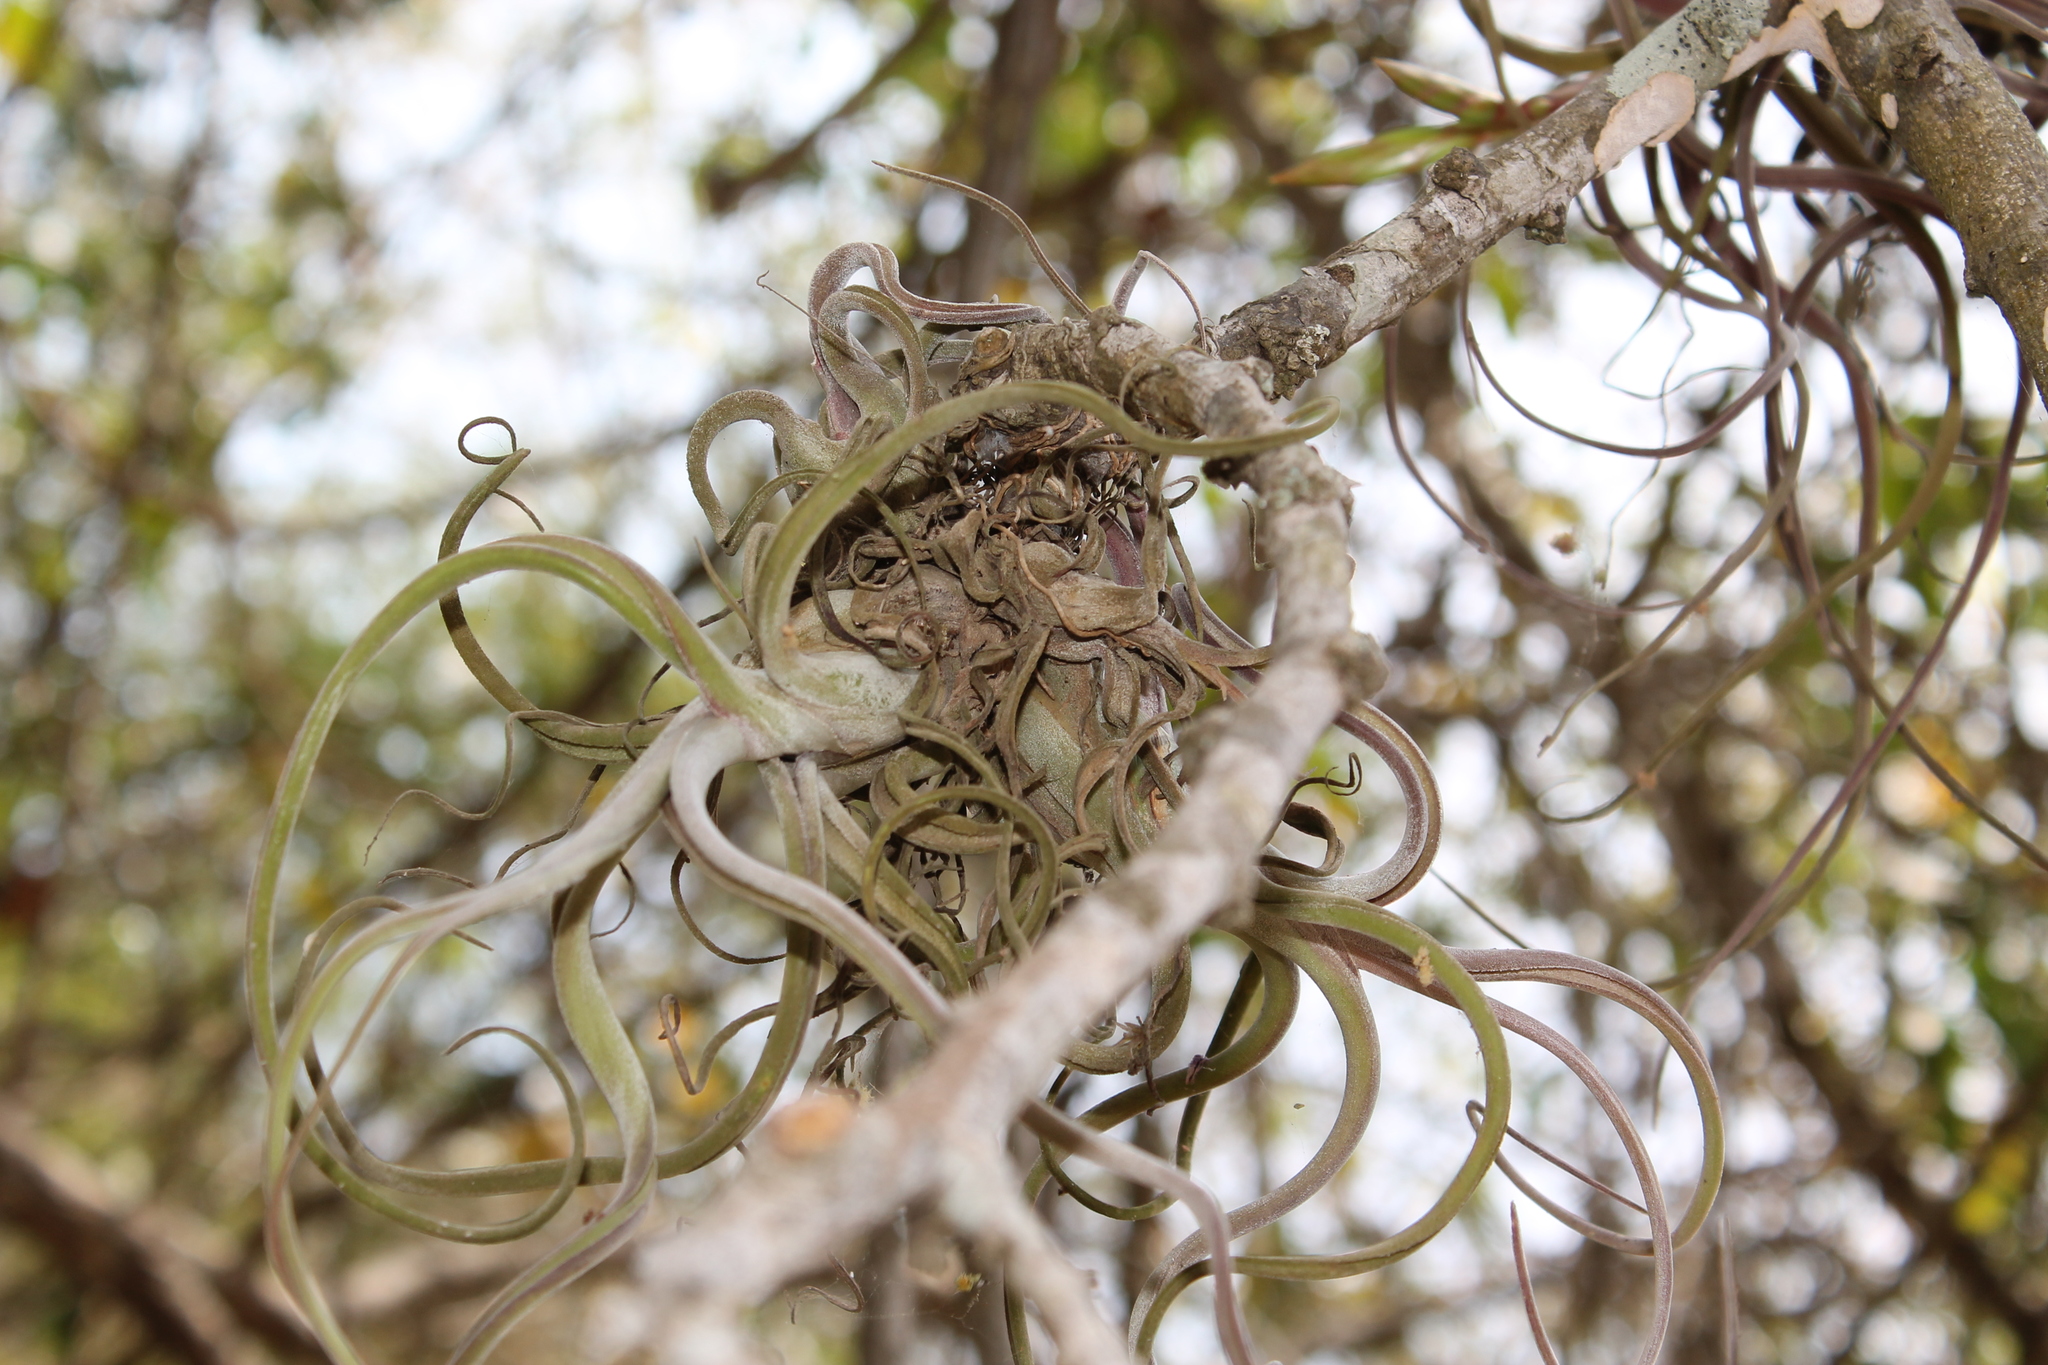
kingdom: Plantae
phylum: Tracheophyta
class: Liliopsida
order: Poales
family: Bromeliaceae
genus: Tillandsia
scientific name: Tillandsia caput-medusae
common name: Octopus plant
